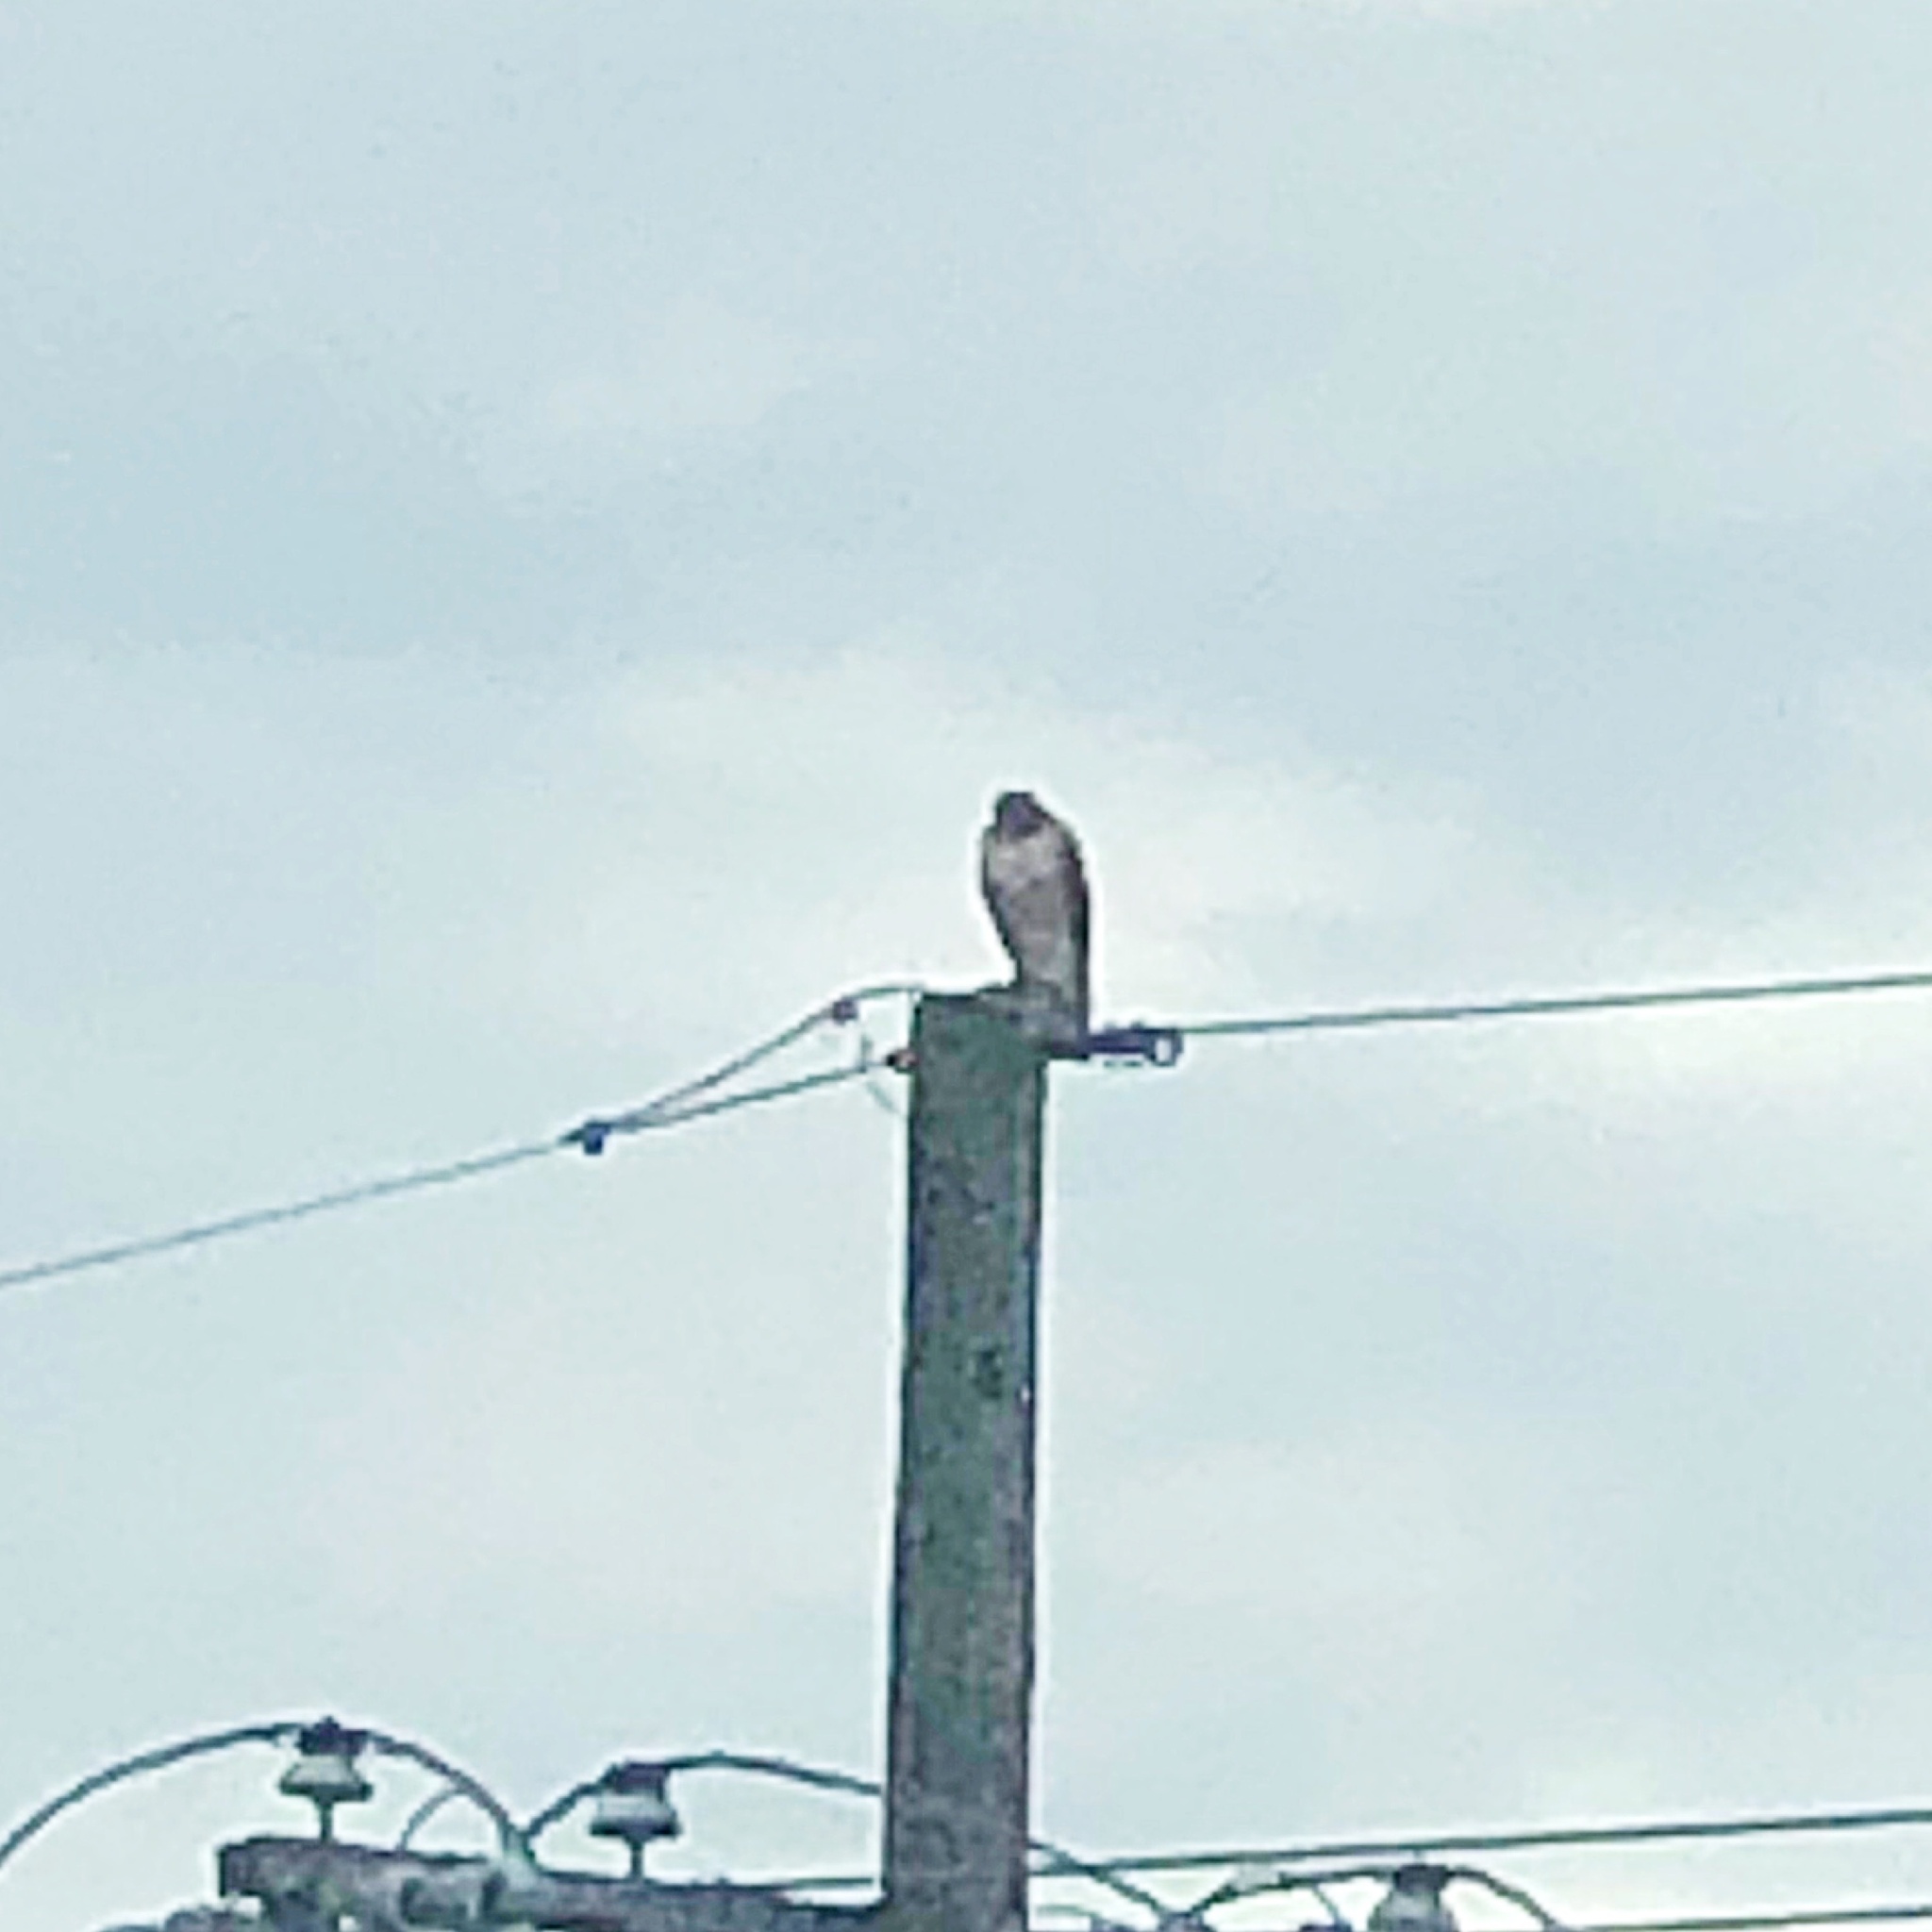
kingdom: Animalia
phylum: Chordata
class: Aves
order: Accipitriformes
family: Accipitridae
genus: Buteo
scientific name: Buteo jamaicensis
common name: Red-tailed hawk
